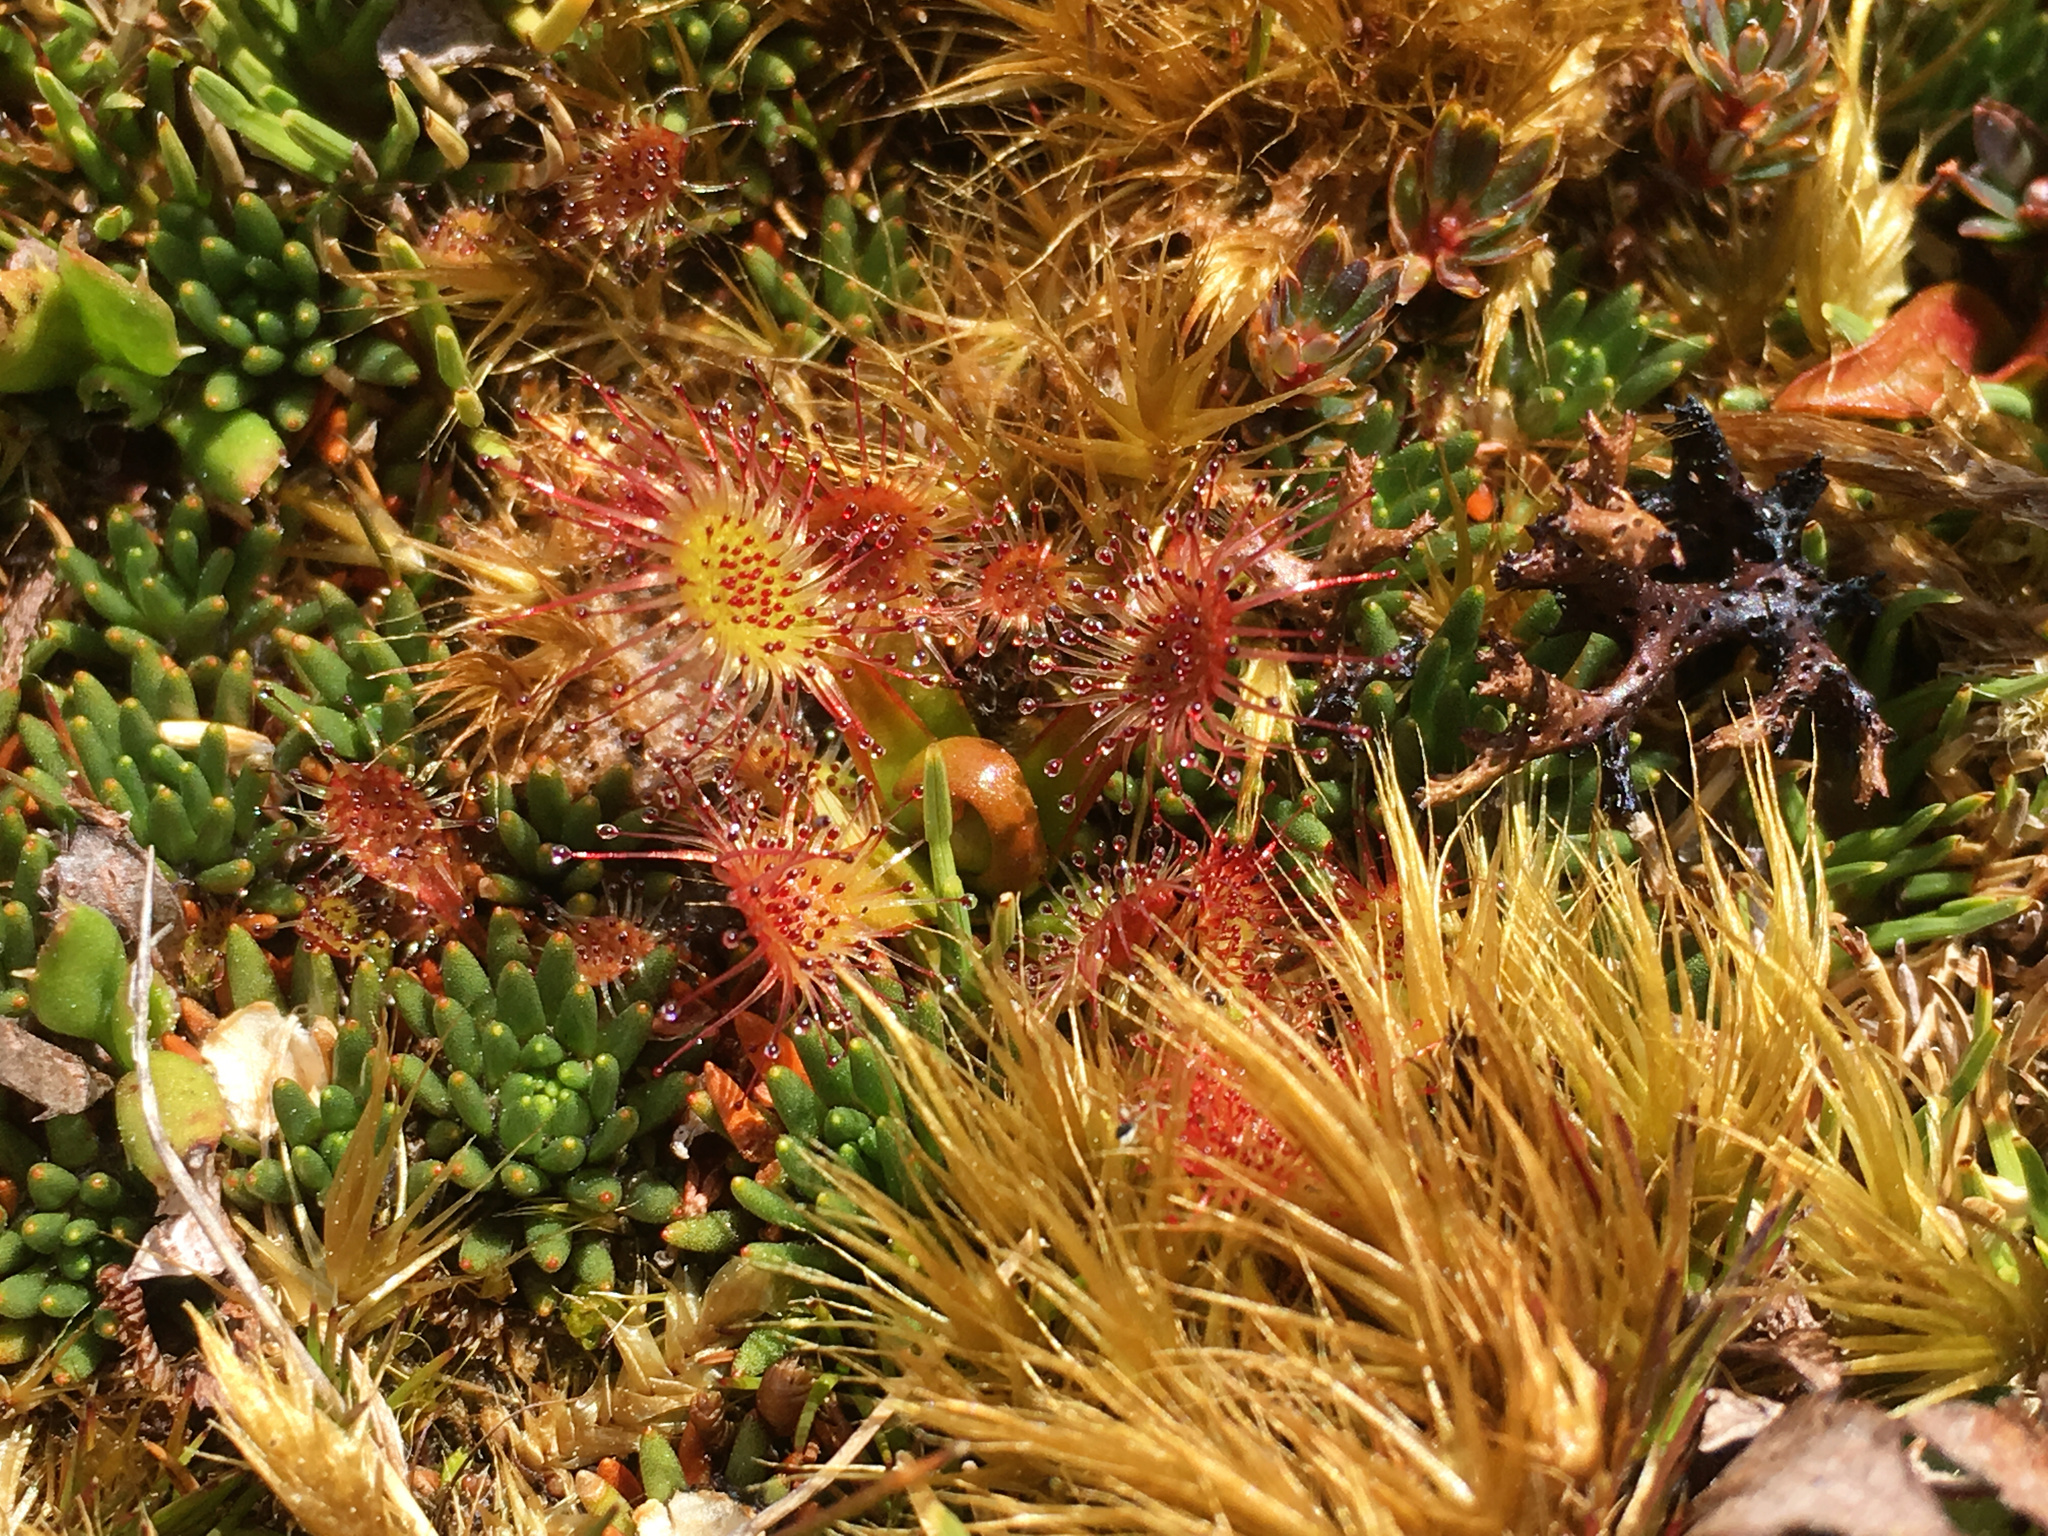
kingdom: Plantae
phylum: Tracheophyta
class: Magnoliopsida
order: Caryophyllales
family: Droseraceae
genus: Drosera
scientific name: Drosera stenopetala
